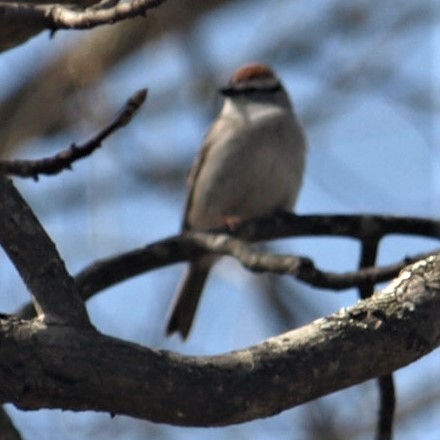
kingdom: Animalia
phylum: Chordata
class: Aves
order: Passeriformes
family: Passerellidae
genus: Spizella
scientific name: Spizella passerina
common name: Chipping sparrow
